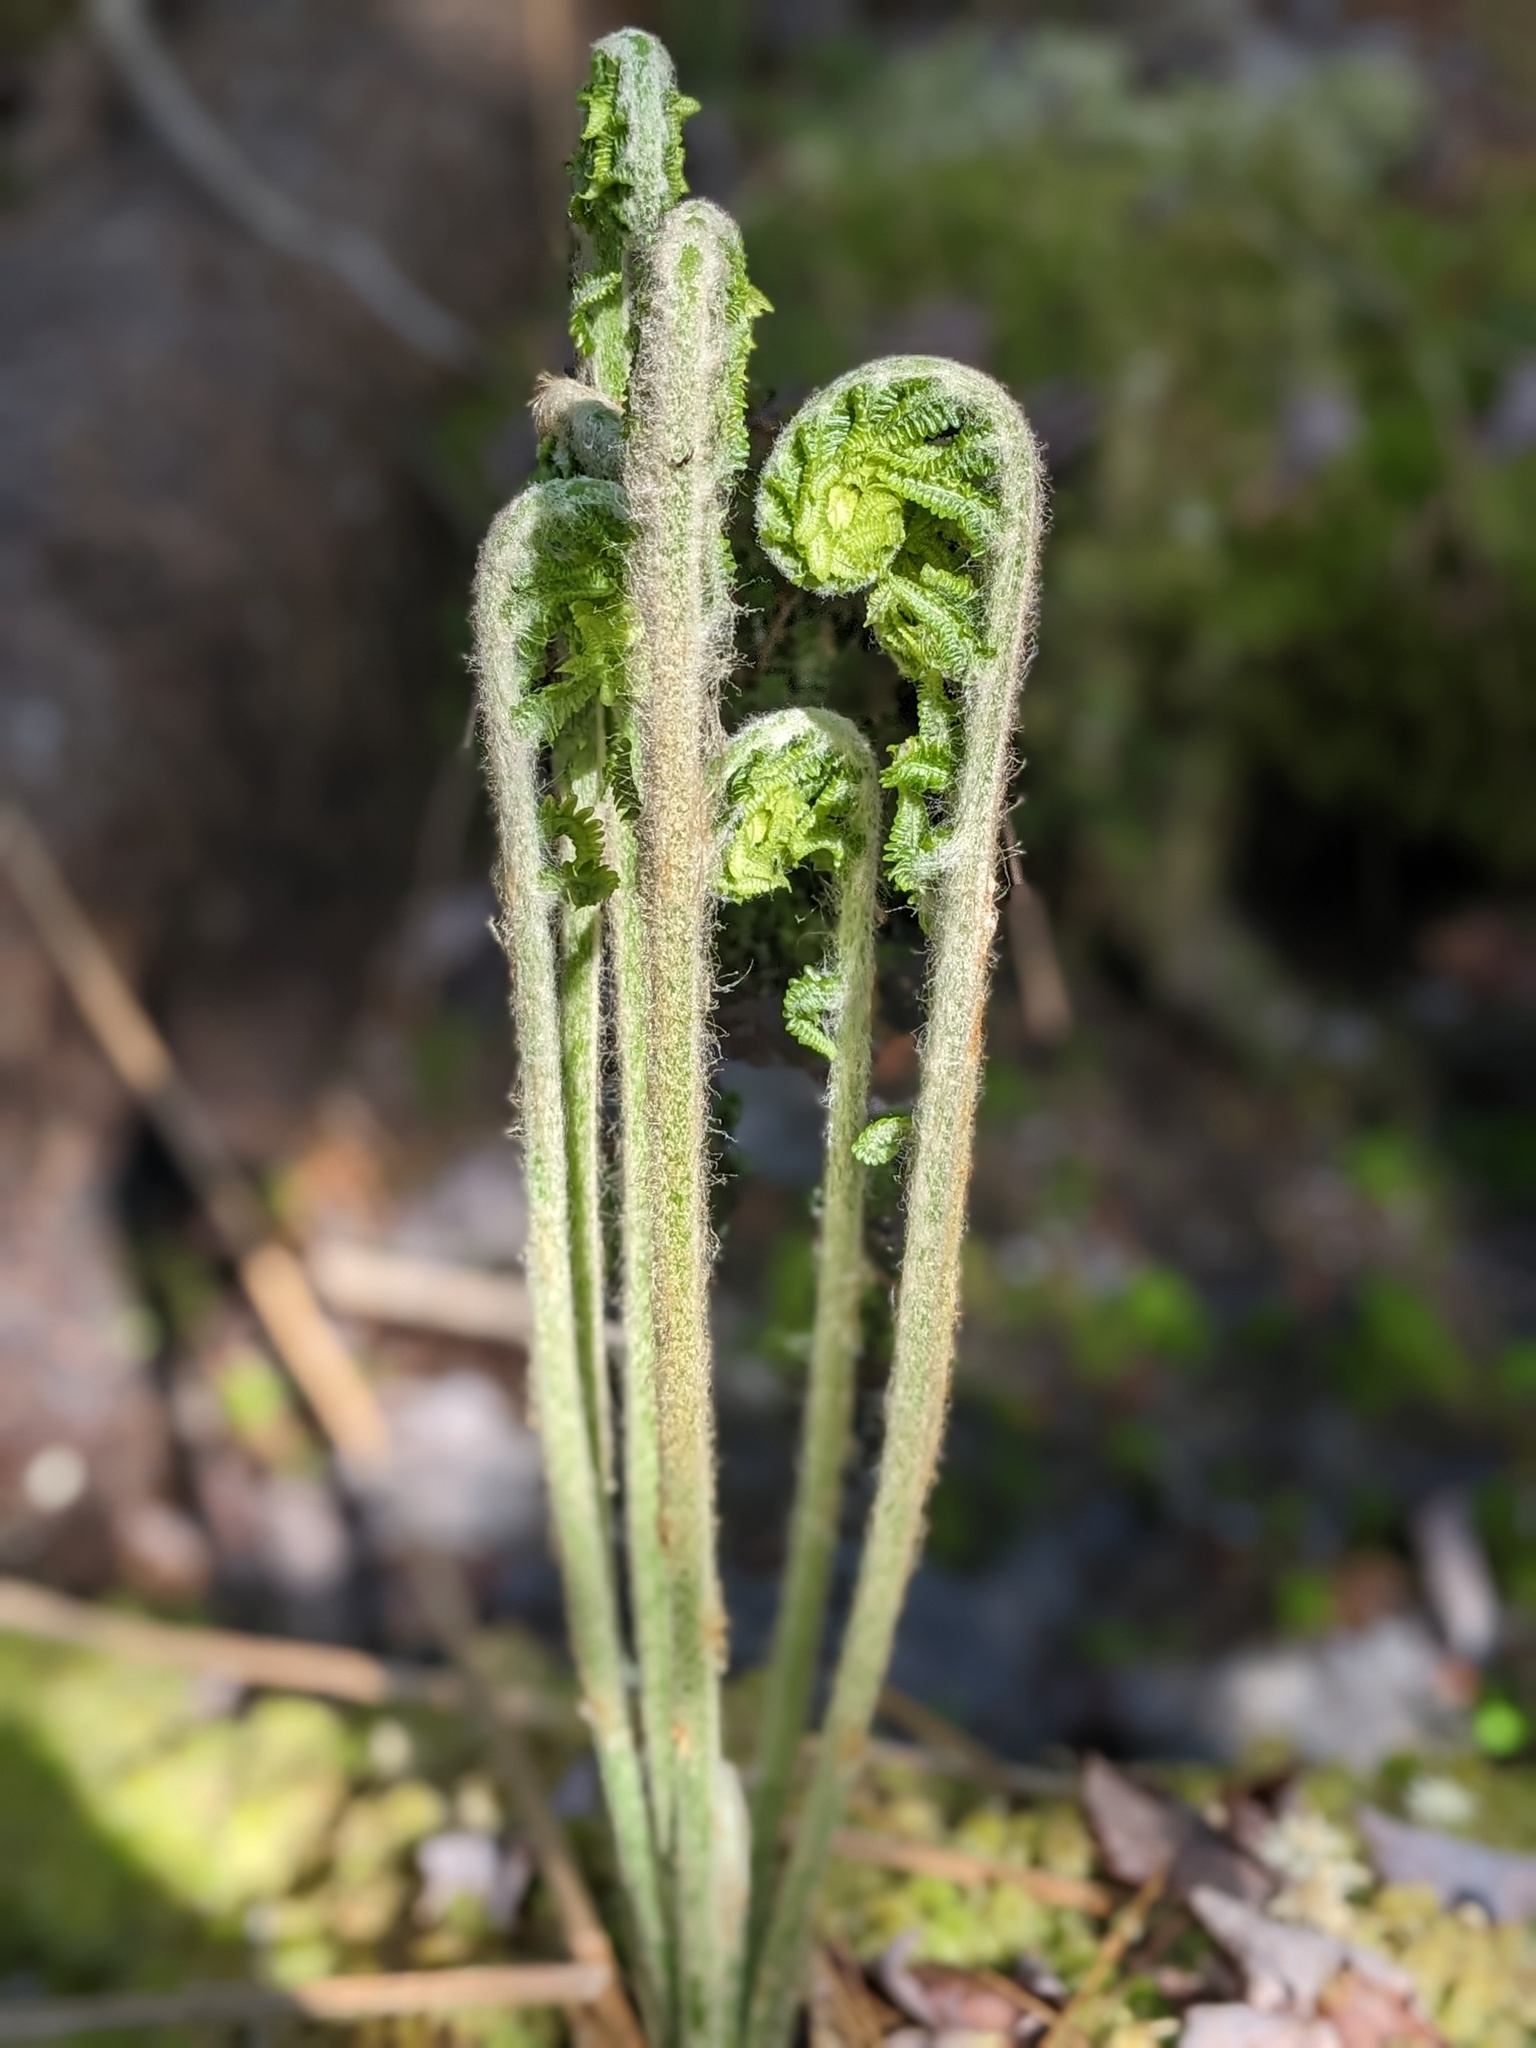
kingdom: Plantae
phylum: Tracheophyta
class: Polypodiopsida
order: Osmundales
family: Osmundaceae
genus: Osmundastrum
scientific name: Osmundastrum cinnamomeum
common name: Cinnamon fern
